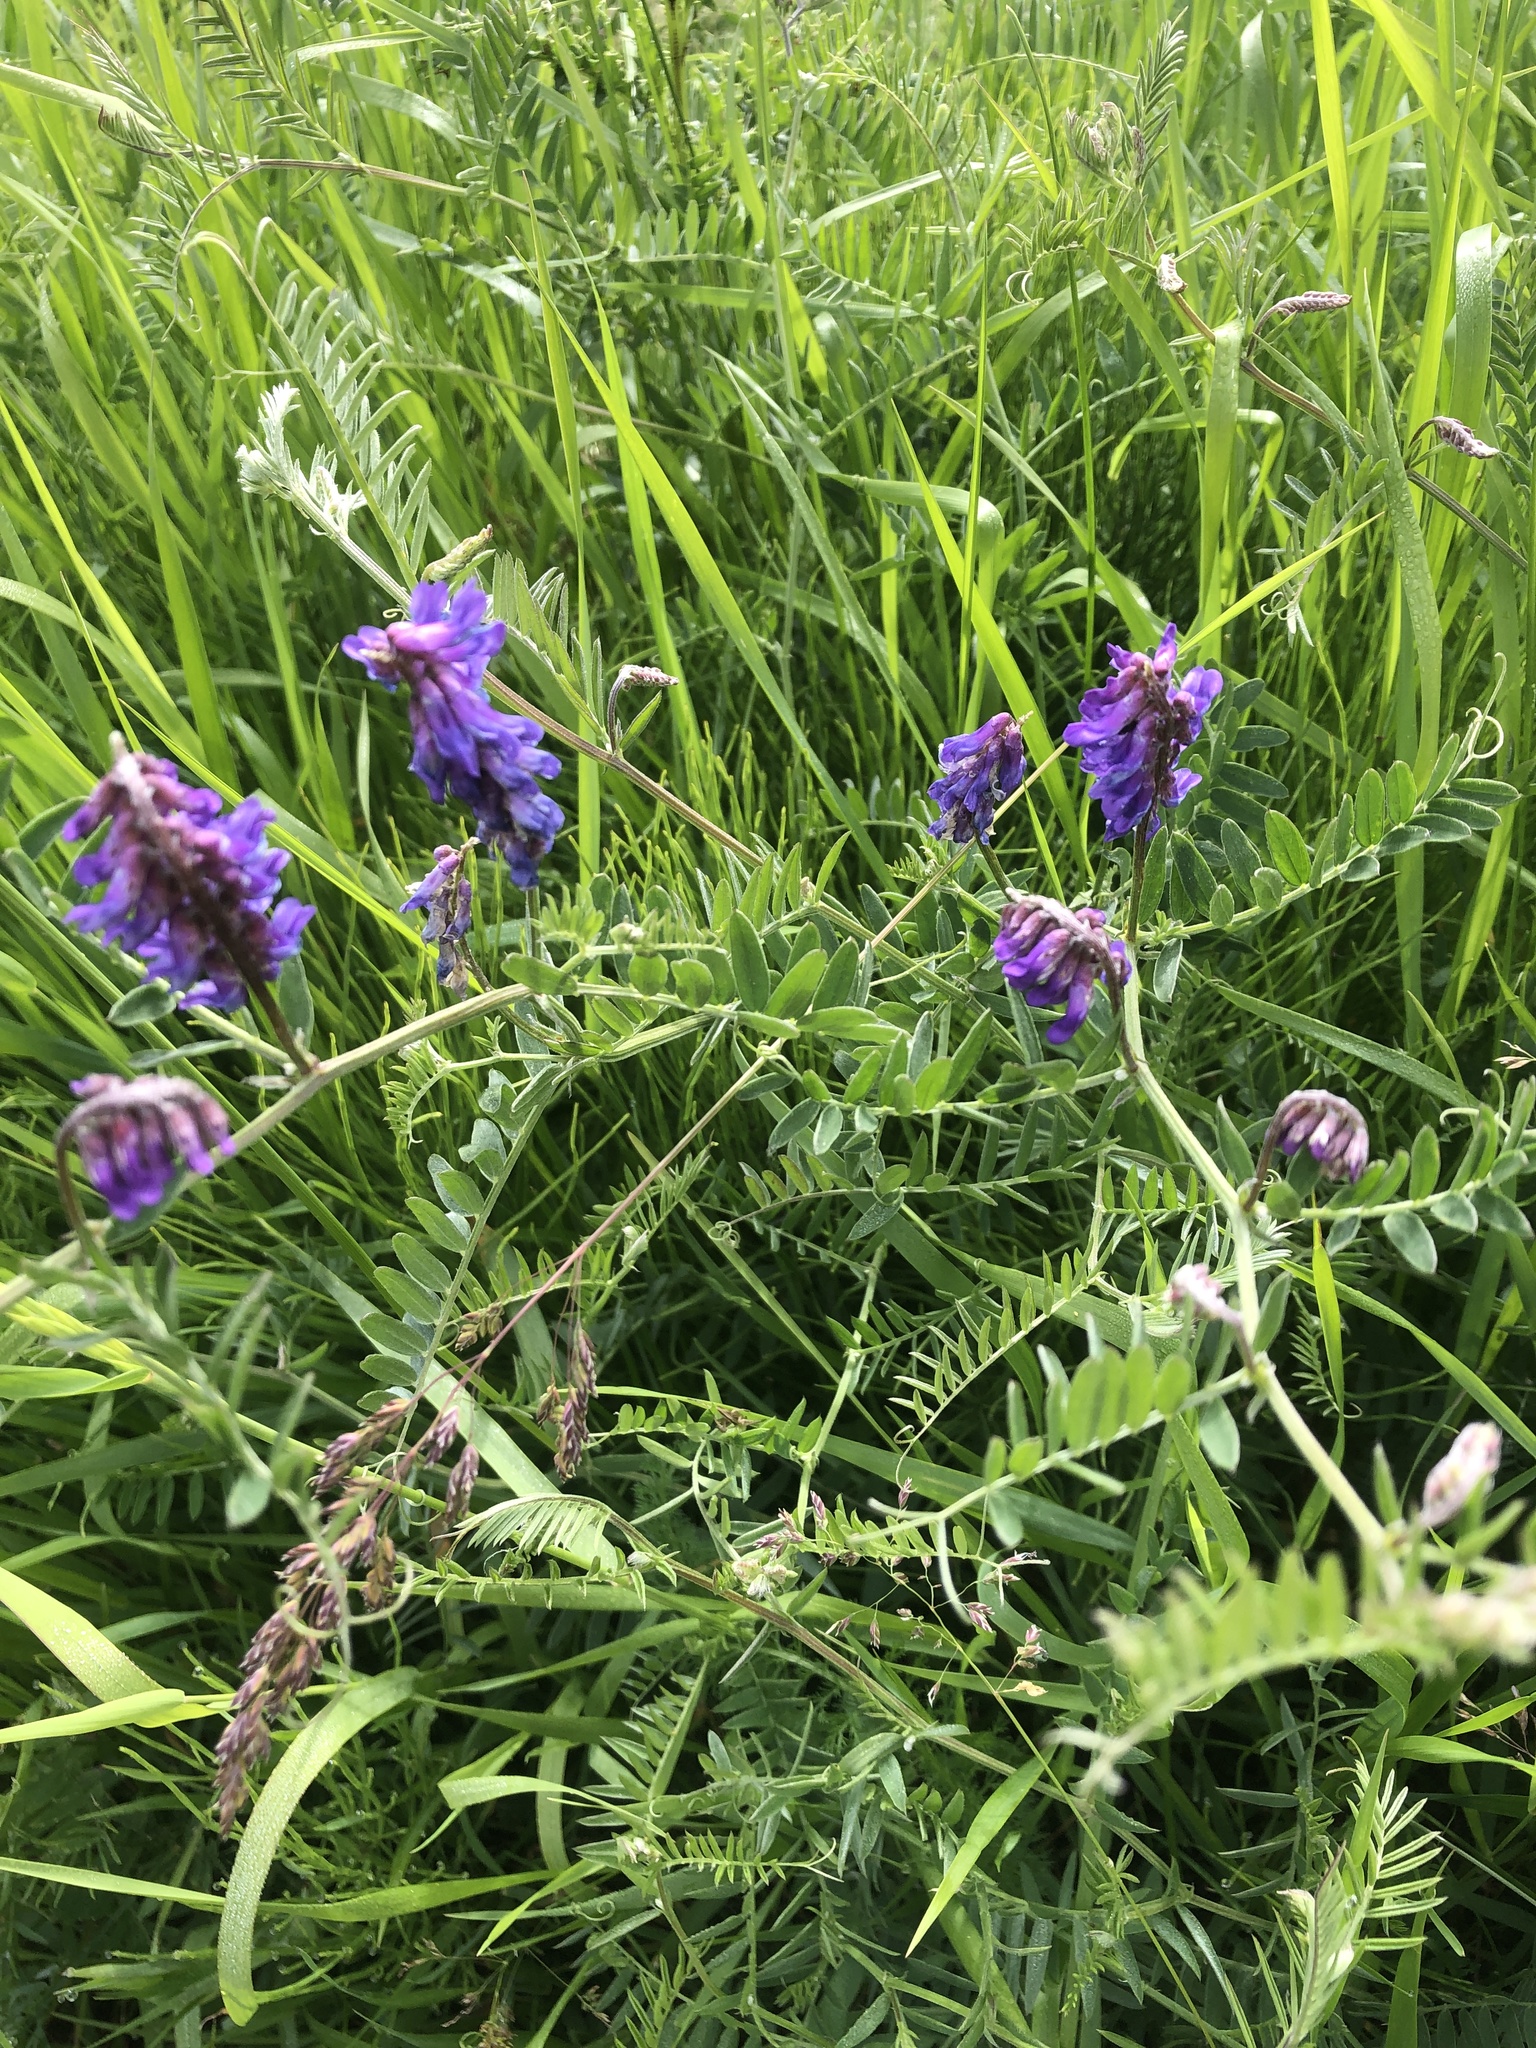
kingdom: Plantae
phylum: Tracheophyta
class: Magnoliopsida
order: Fabales
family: Fabaceae
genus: Vicia
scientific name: Vicia cracca
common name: Bird vetch
